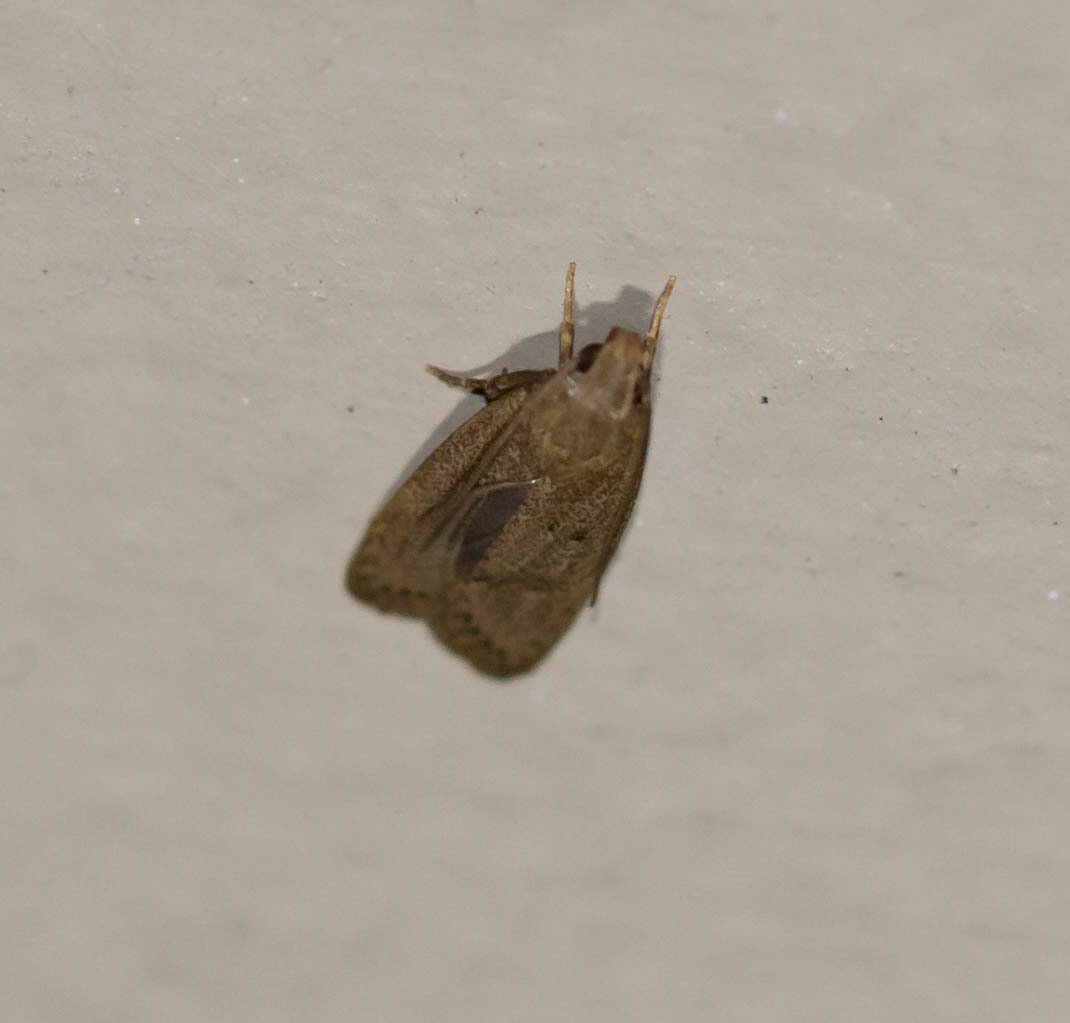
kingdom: Animalia
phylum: Arthropoda
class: Insecta
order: Lepidoptera
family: Autostichidae
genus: Autosticha
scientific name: Autosticha kyotensis
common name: Kyoto moth
